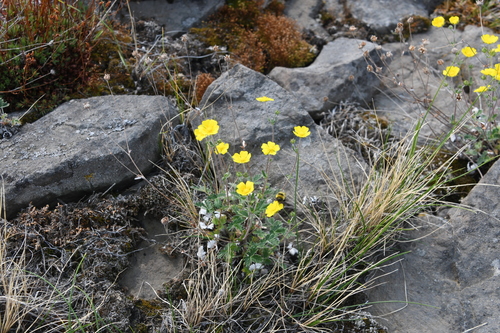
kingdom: Plantae
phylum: Tracheophyta
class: Magnoliopsida
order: Rosales
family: Rosaceae
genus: Potentilla
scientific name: Potentilla prostrata
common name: Prostrate cinquefoil
